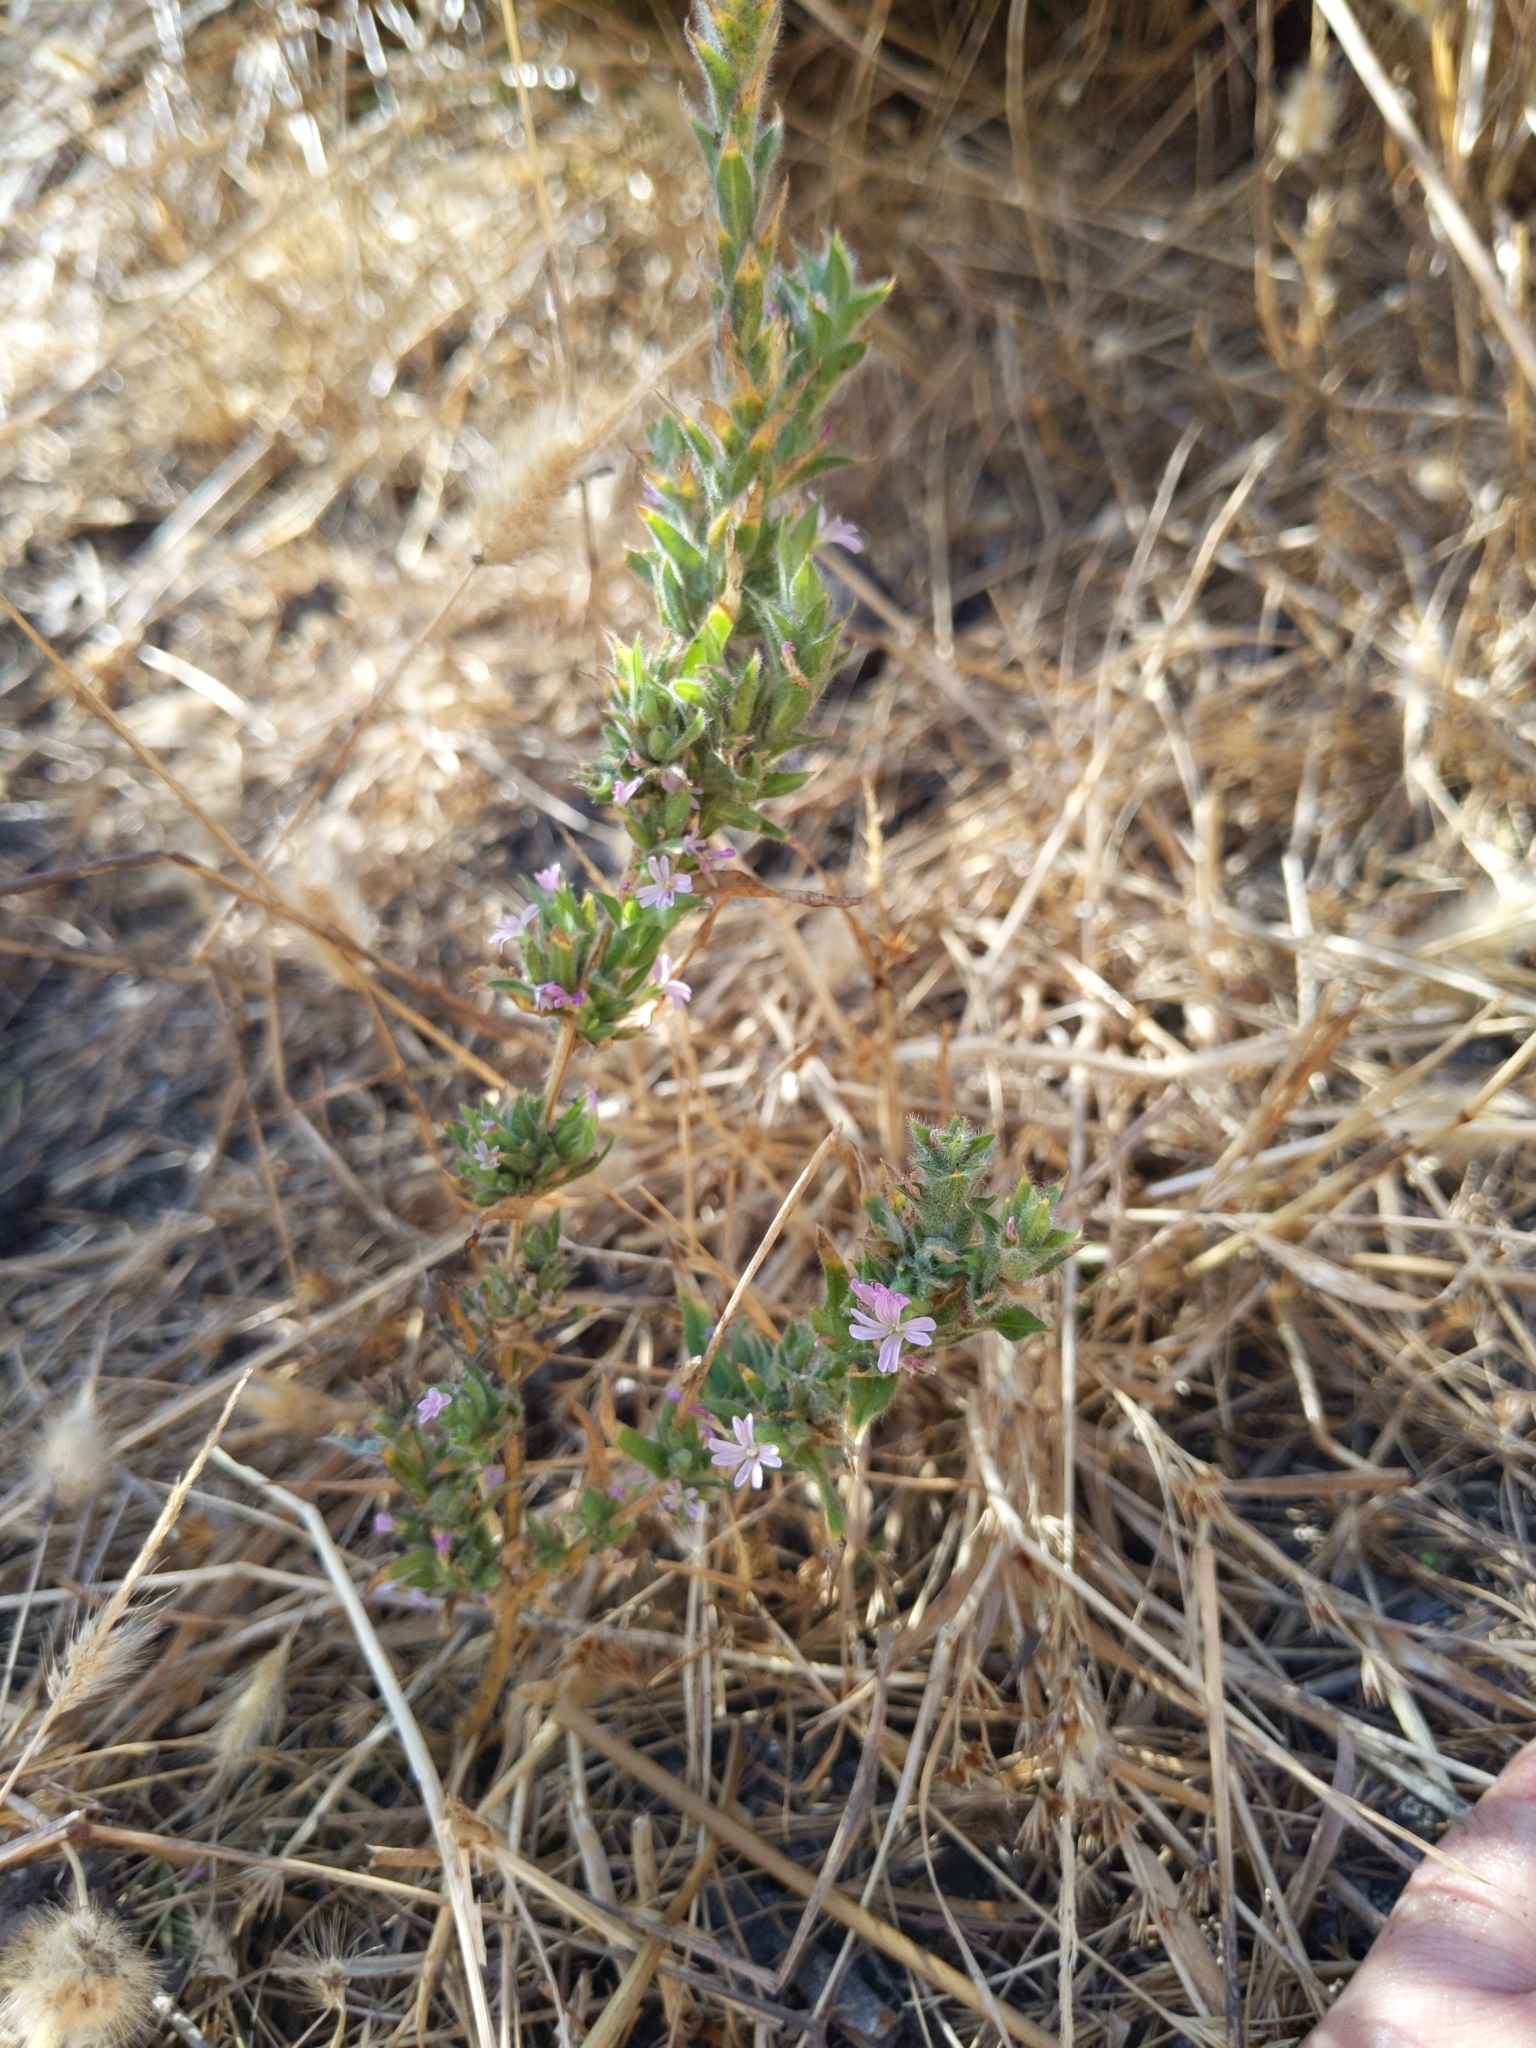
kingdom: Plantae
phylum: Tracheophyta
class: Magnoliopsida
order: Myrtales
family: Onagraceae
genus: Epilobium
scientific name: Epilobium densiflorum
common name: Dense spike-primrose
